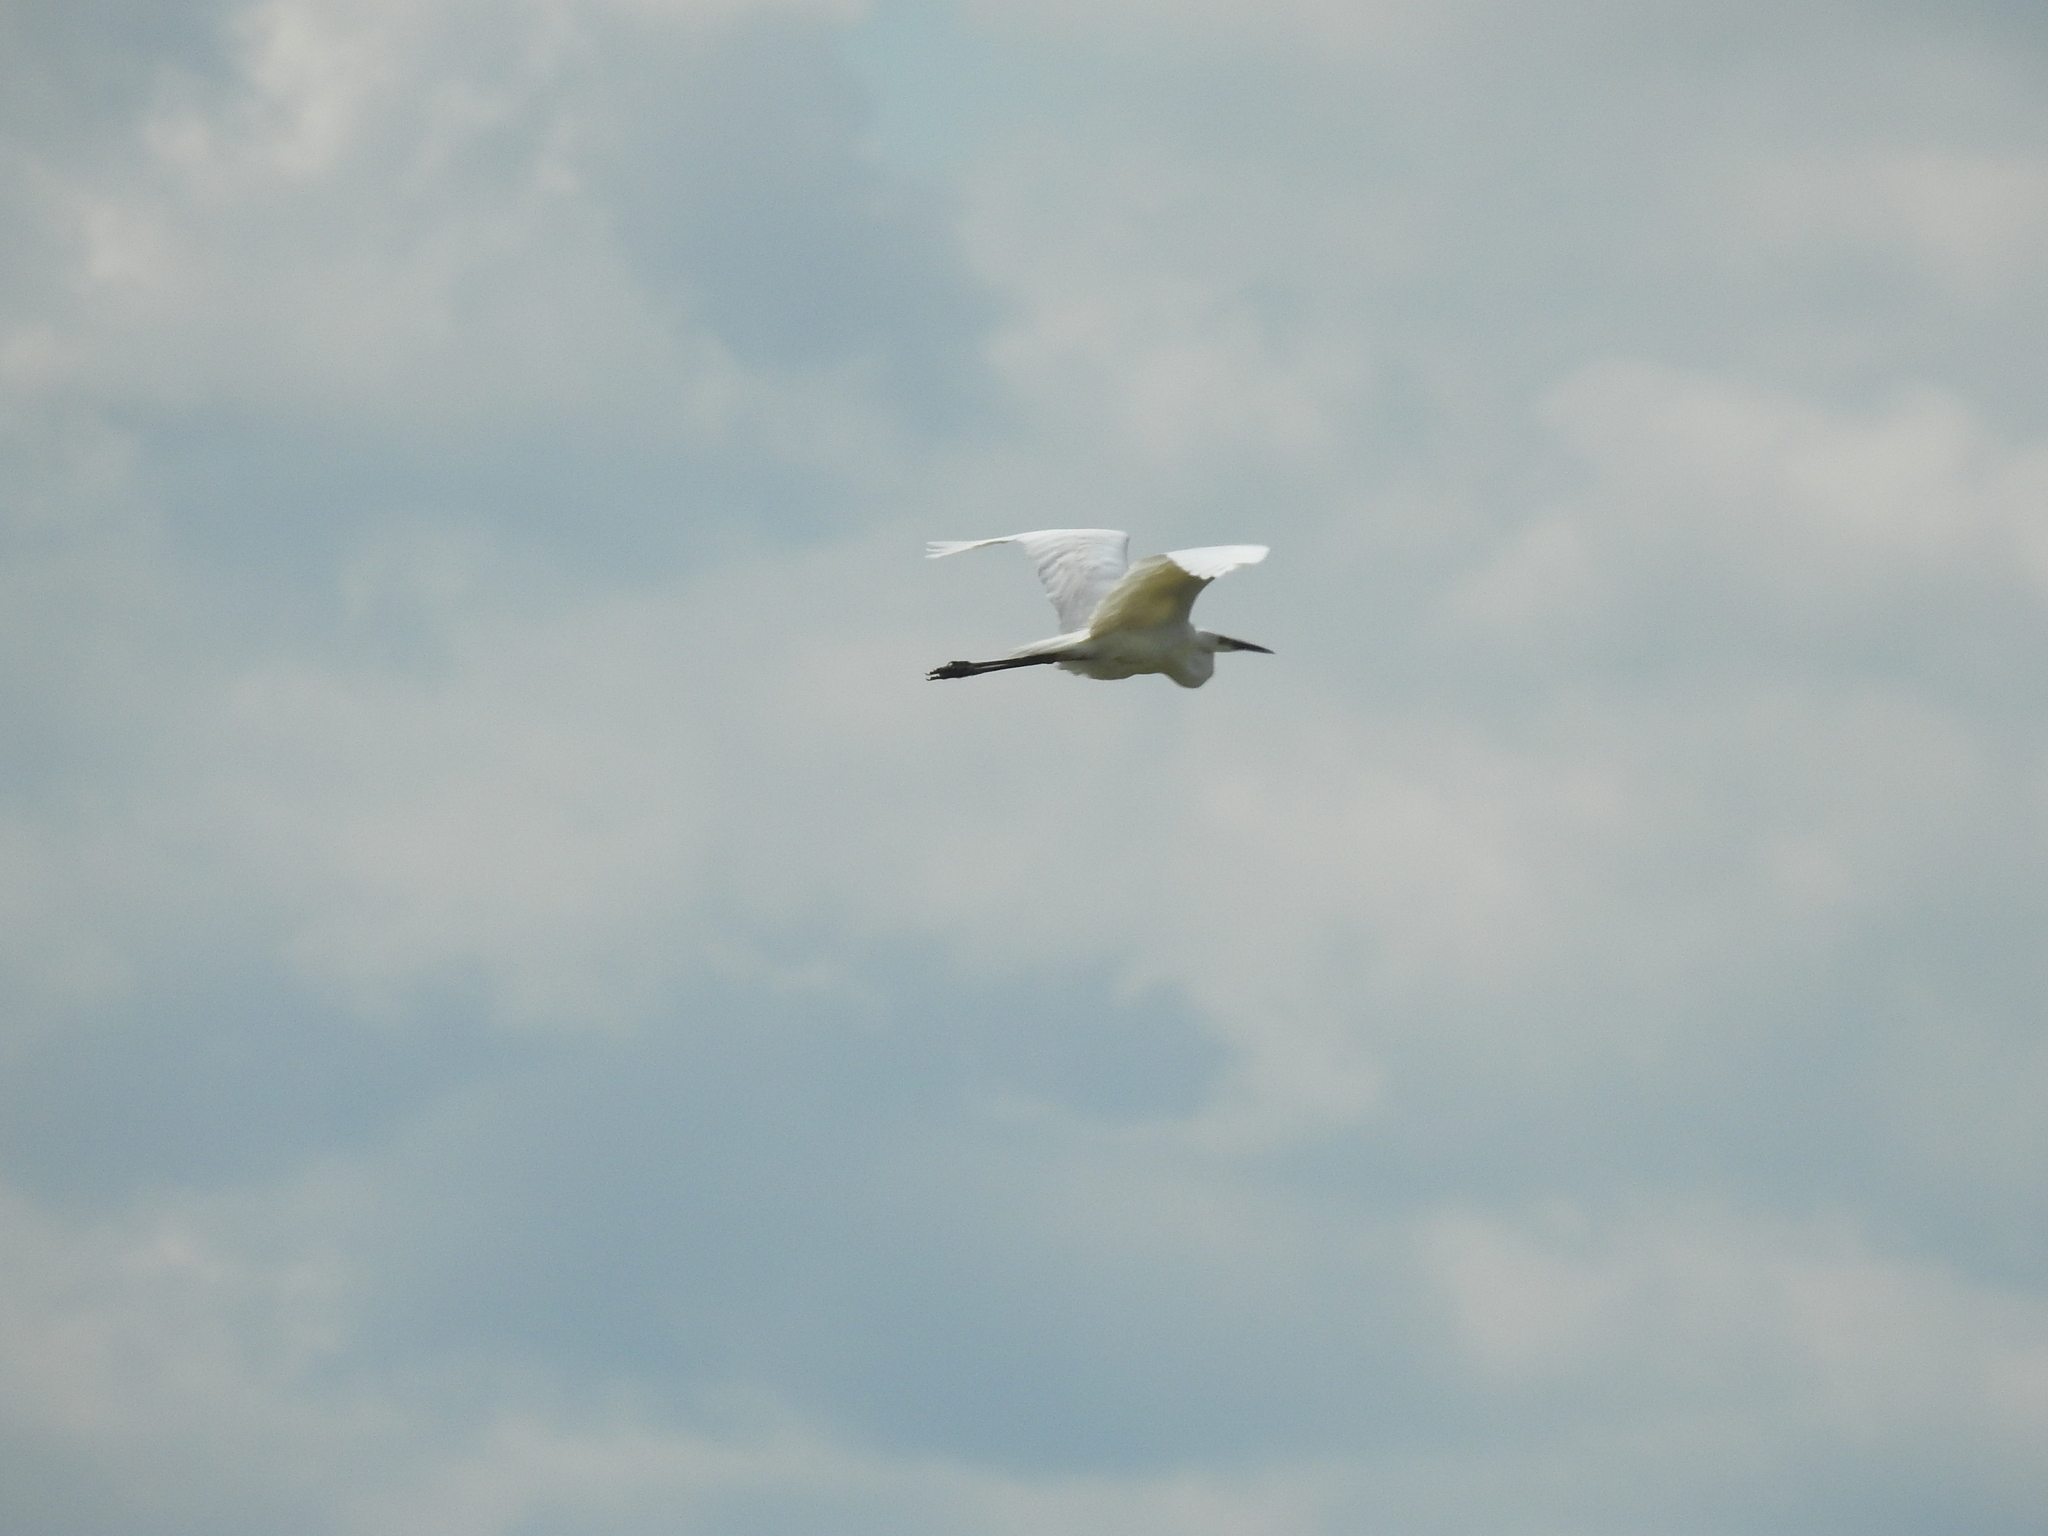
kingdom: Animalia
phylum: Chordata
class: Aves
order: Pelecaniformes
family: Ardeidae
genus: Ardea
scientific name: Ardea alba
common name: Great egret
